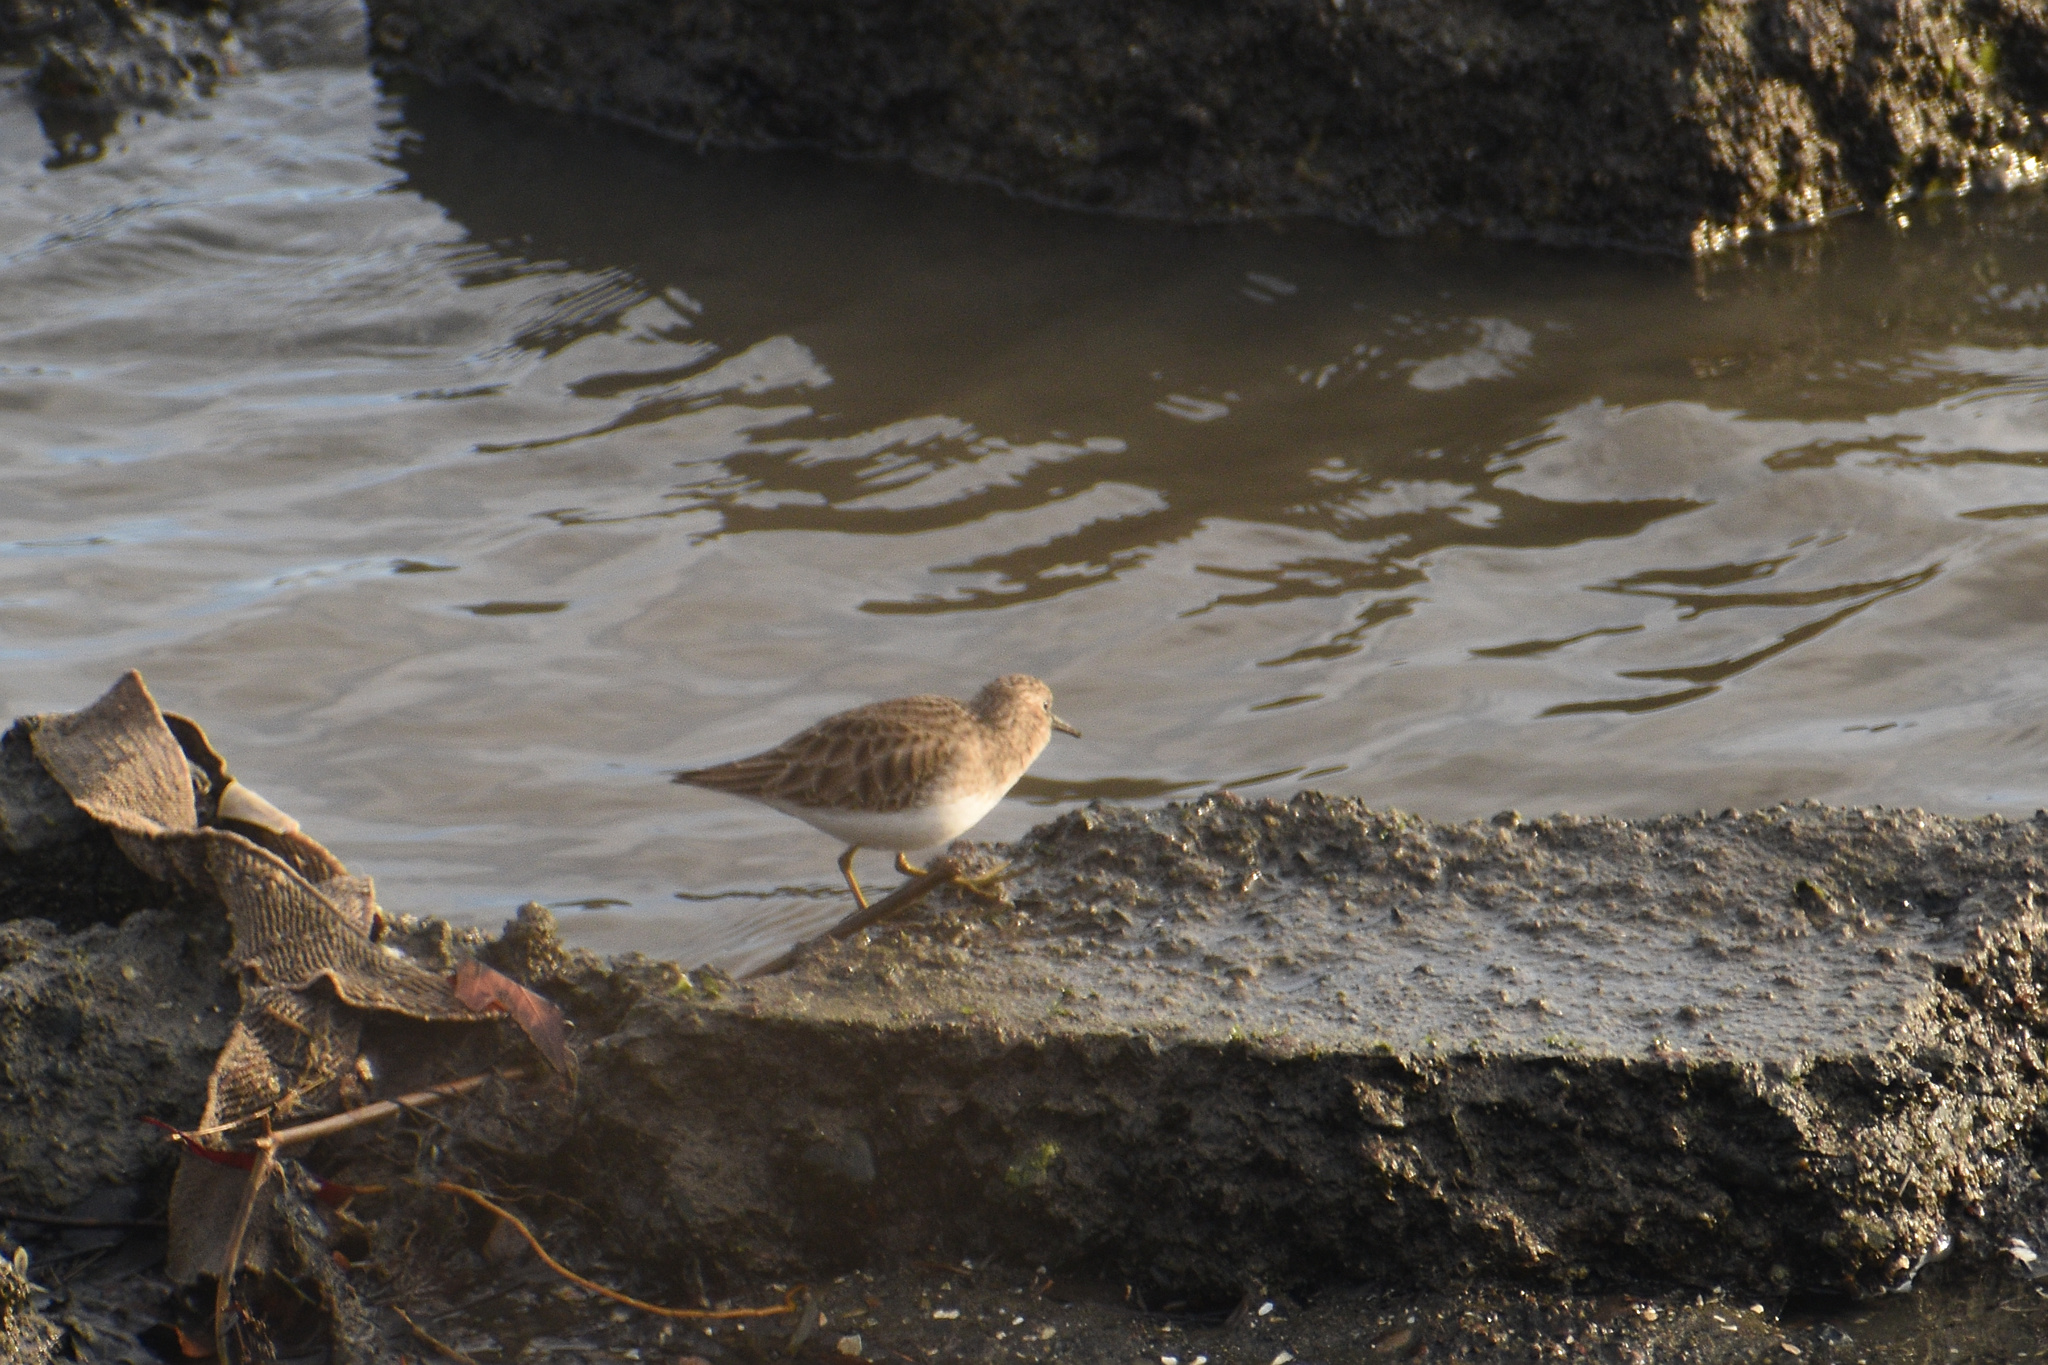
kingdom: Animalia
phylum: Chordata
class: Aves
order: Charadriiformes
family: Scolopacidae
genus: Calidris
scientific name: Calidris minutilla
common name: Least sandpiper
